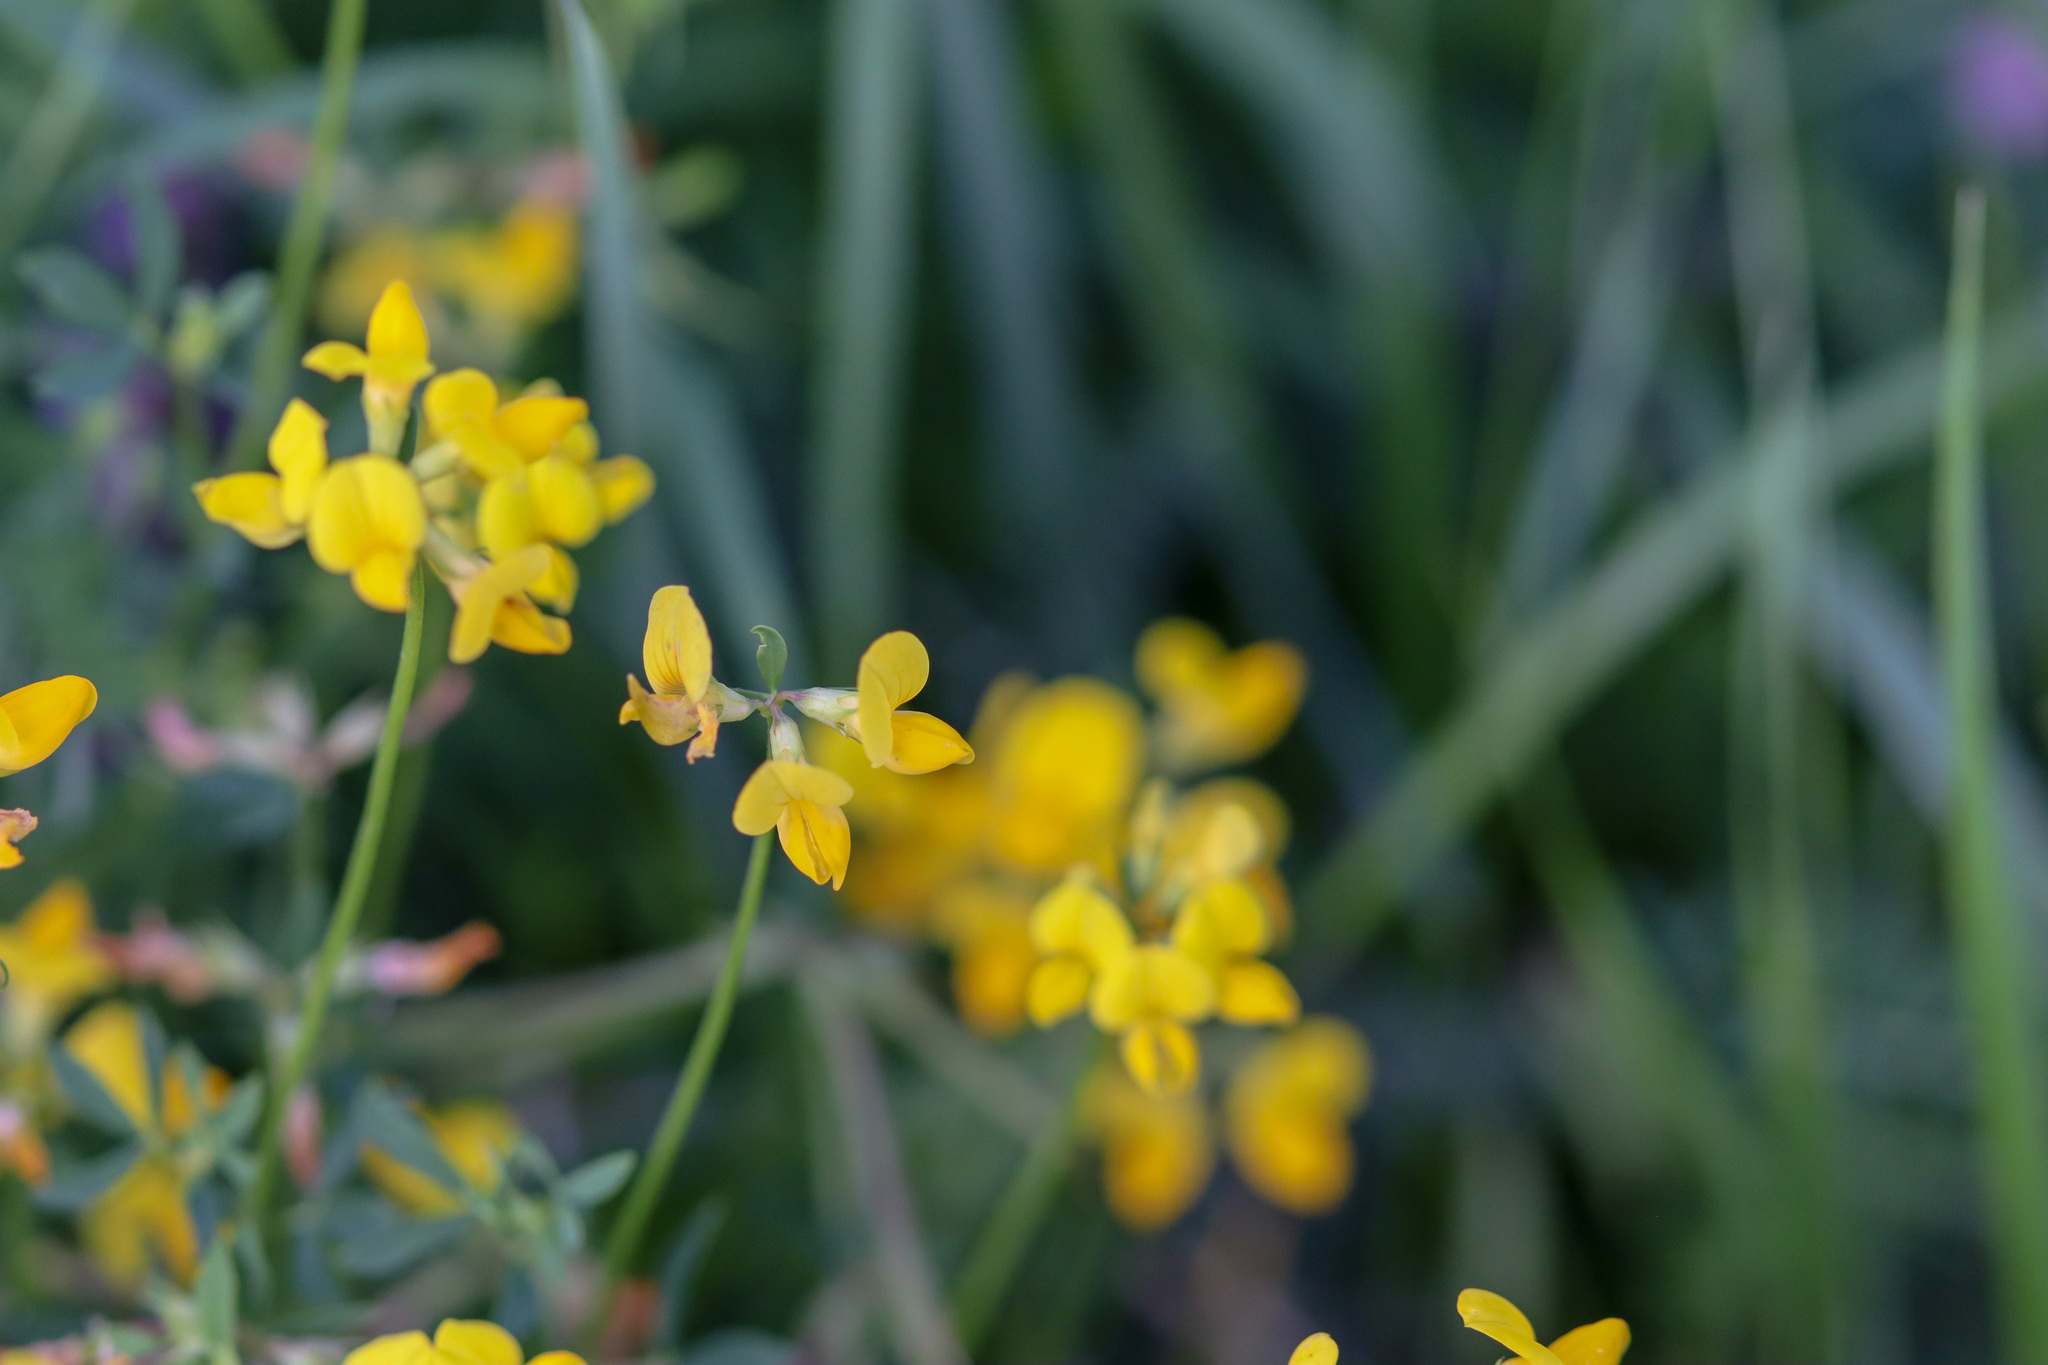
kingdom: Plantae
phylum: Tracheophyta
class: Magnoliopsida
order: Fabales
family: Fabaceae
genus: Lotus
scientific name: Lotus corniculatus
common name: Common bird's-foot-trefoil
